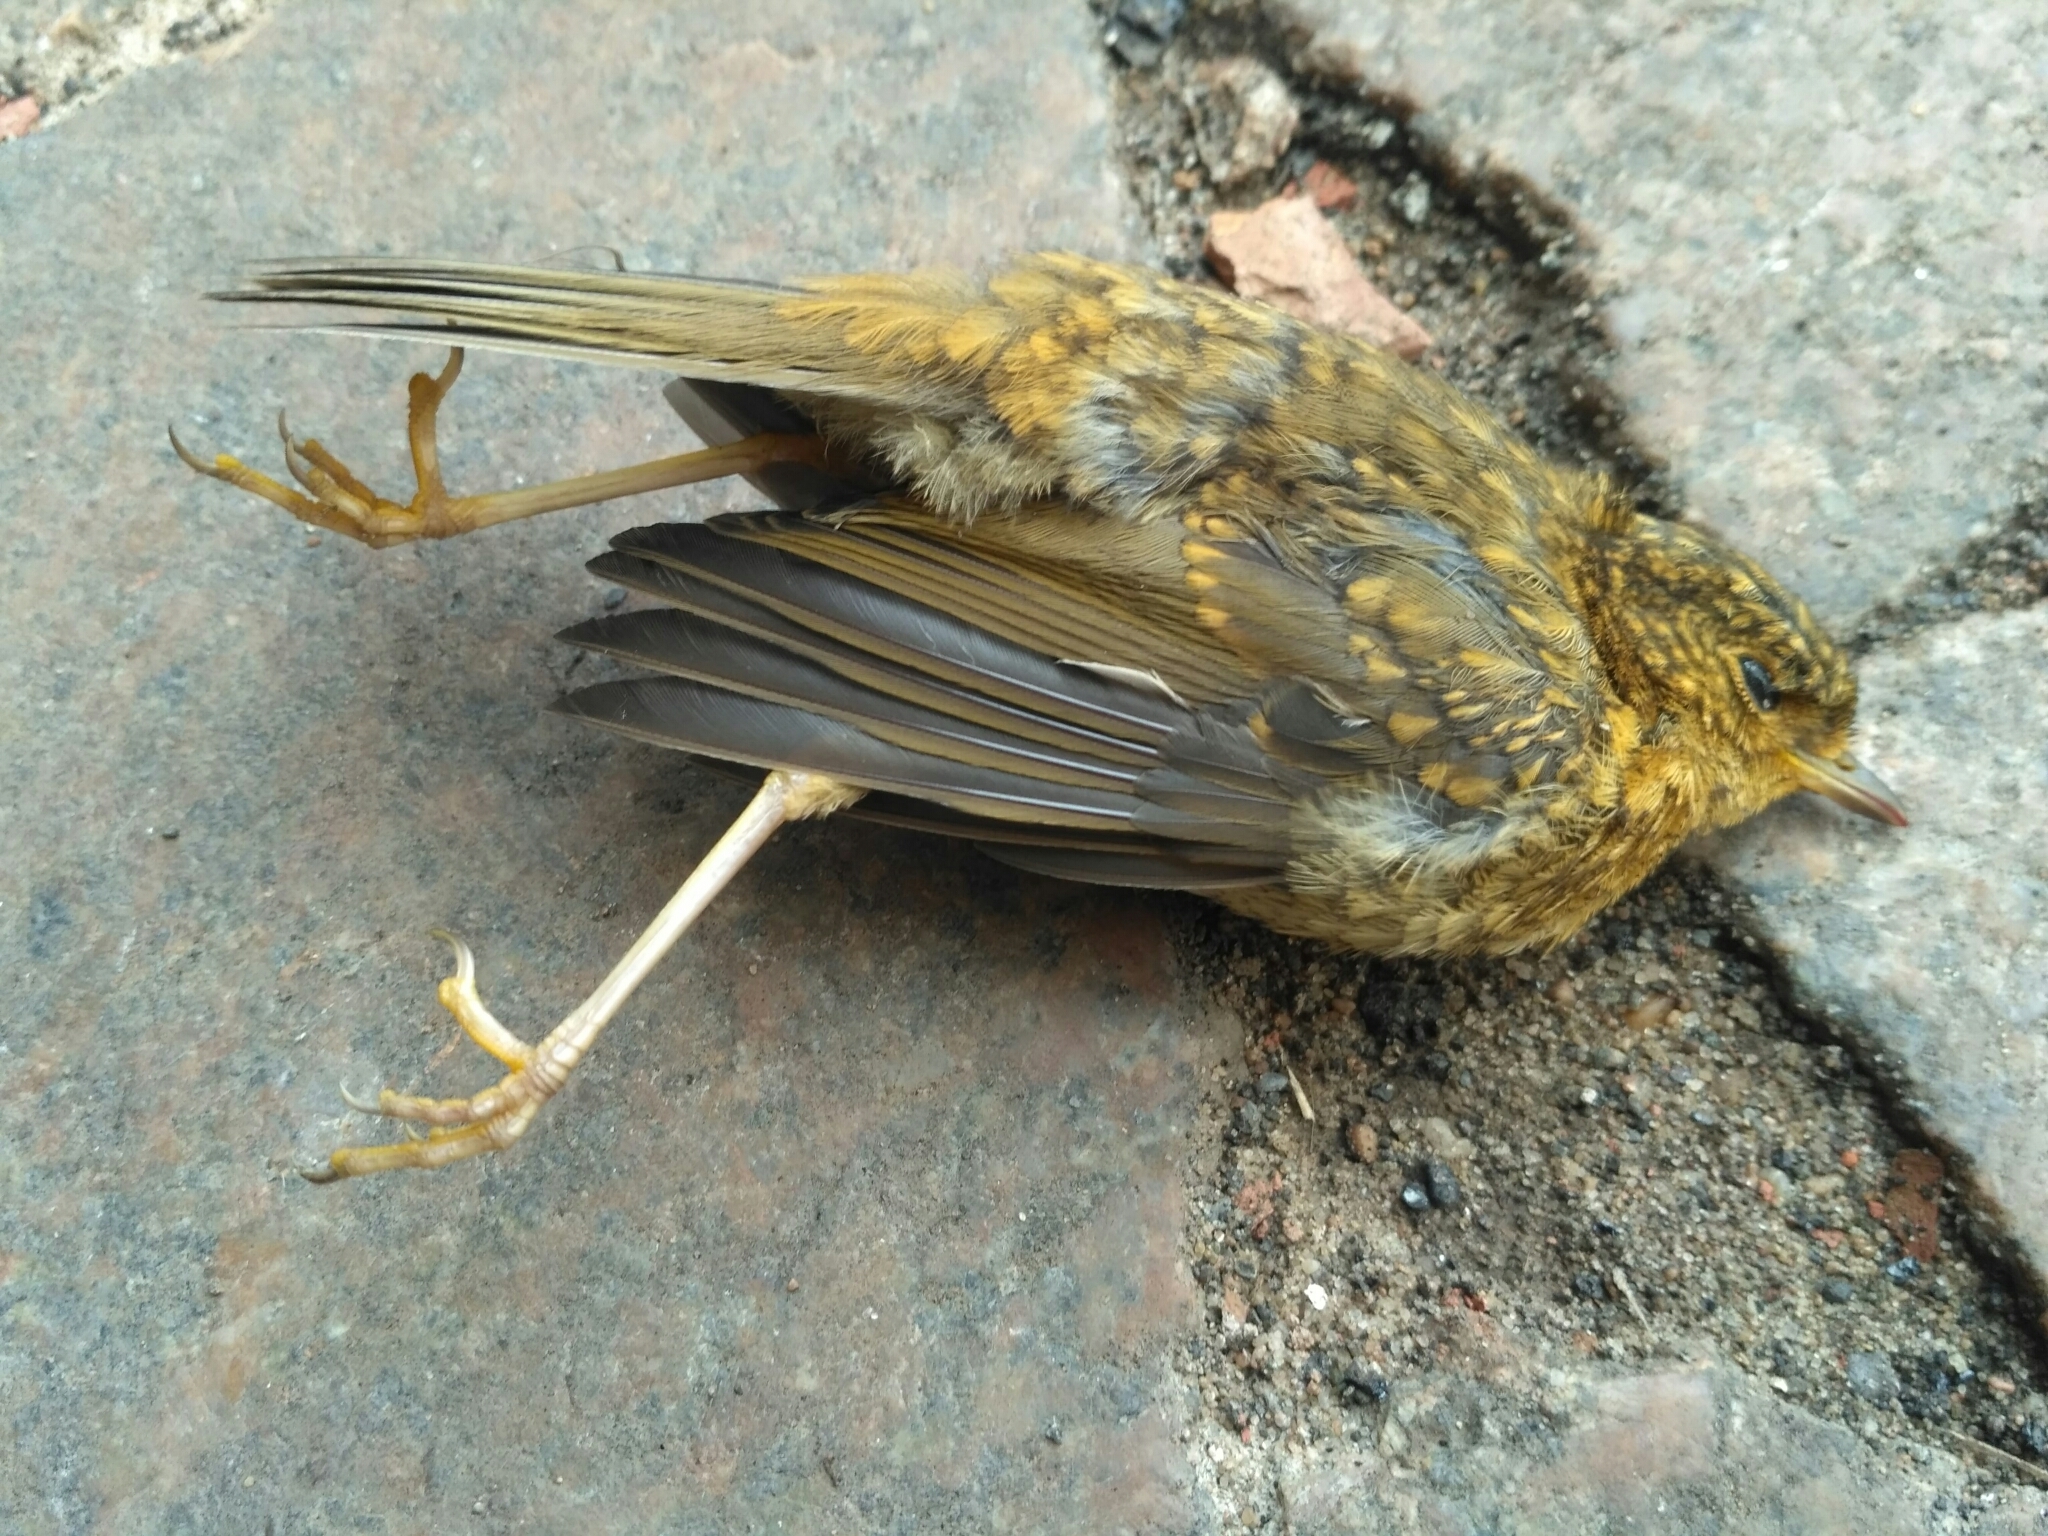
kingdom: Animalia
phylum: Chordata
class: Aves
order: Passeriformes
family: Muscicapidae
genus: Erithacus
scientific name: Erithacus rubecula
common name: European robin
